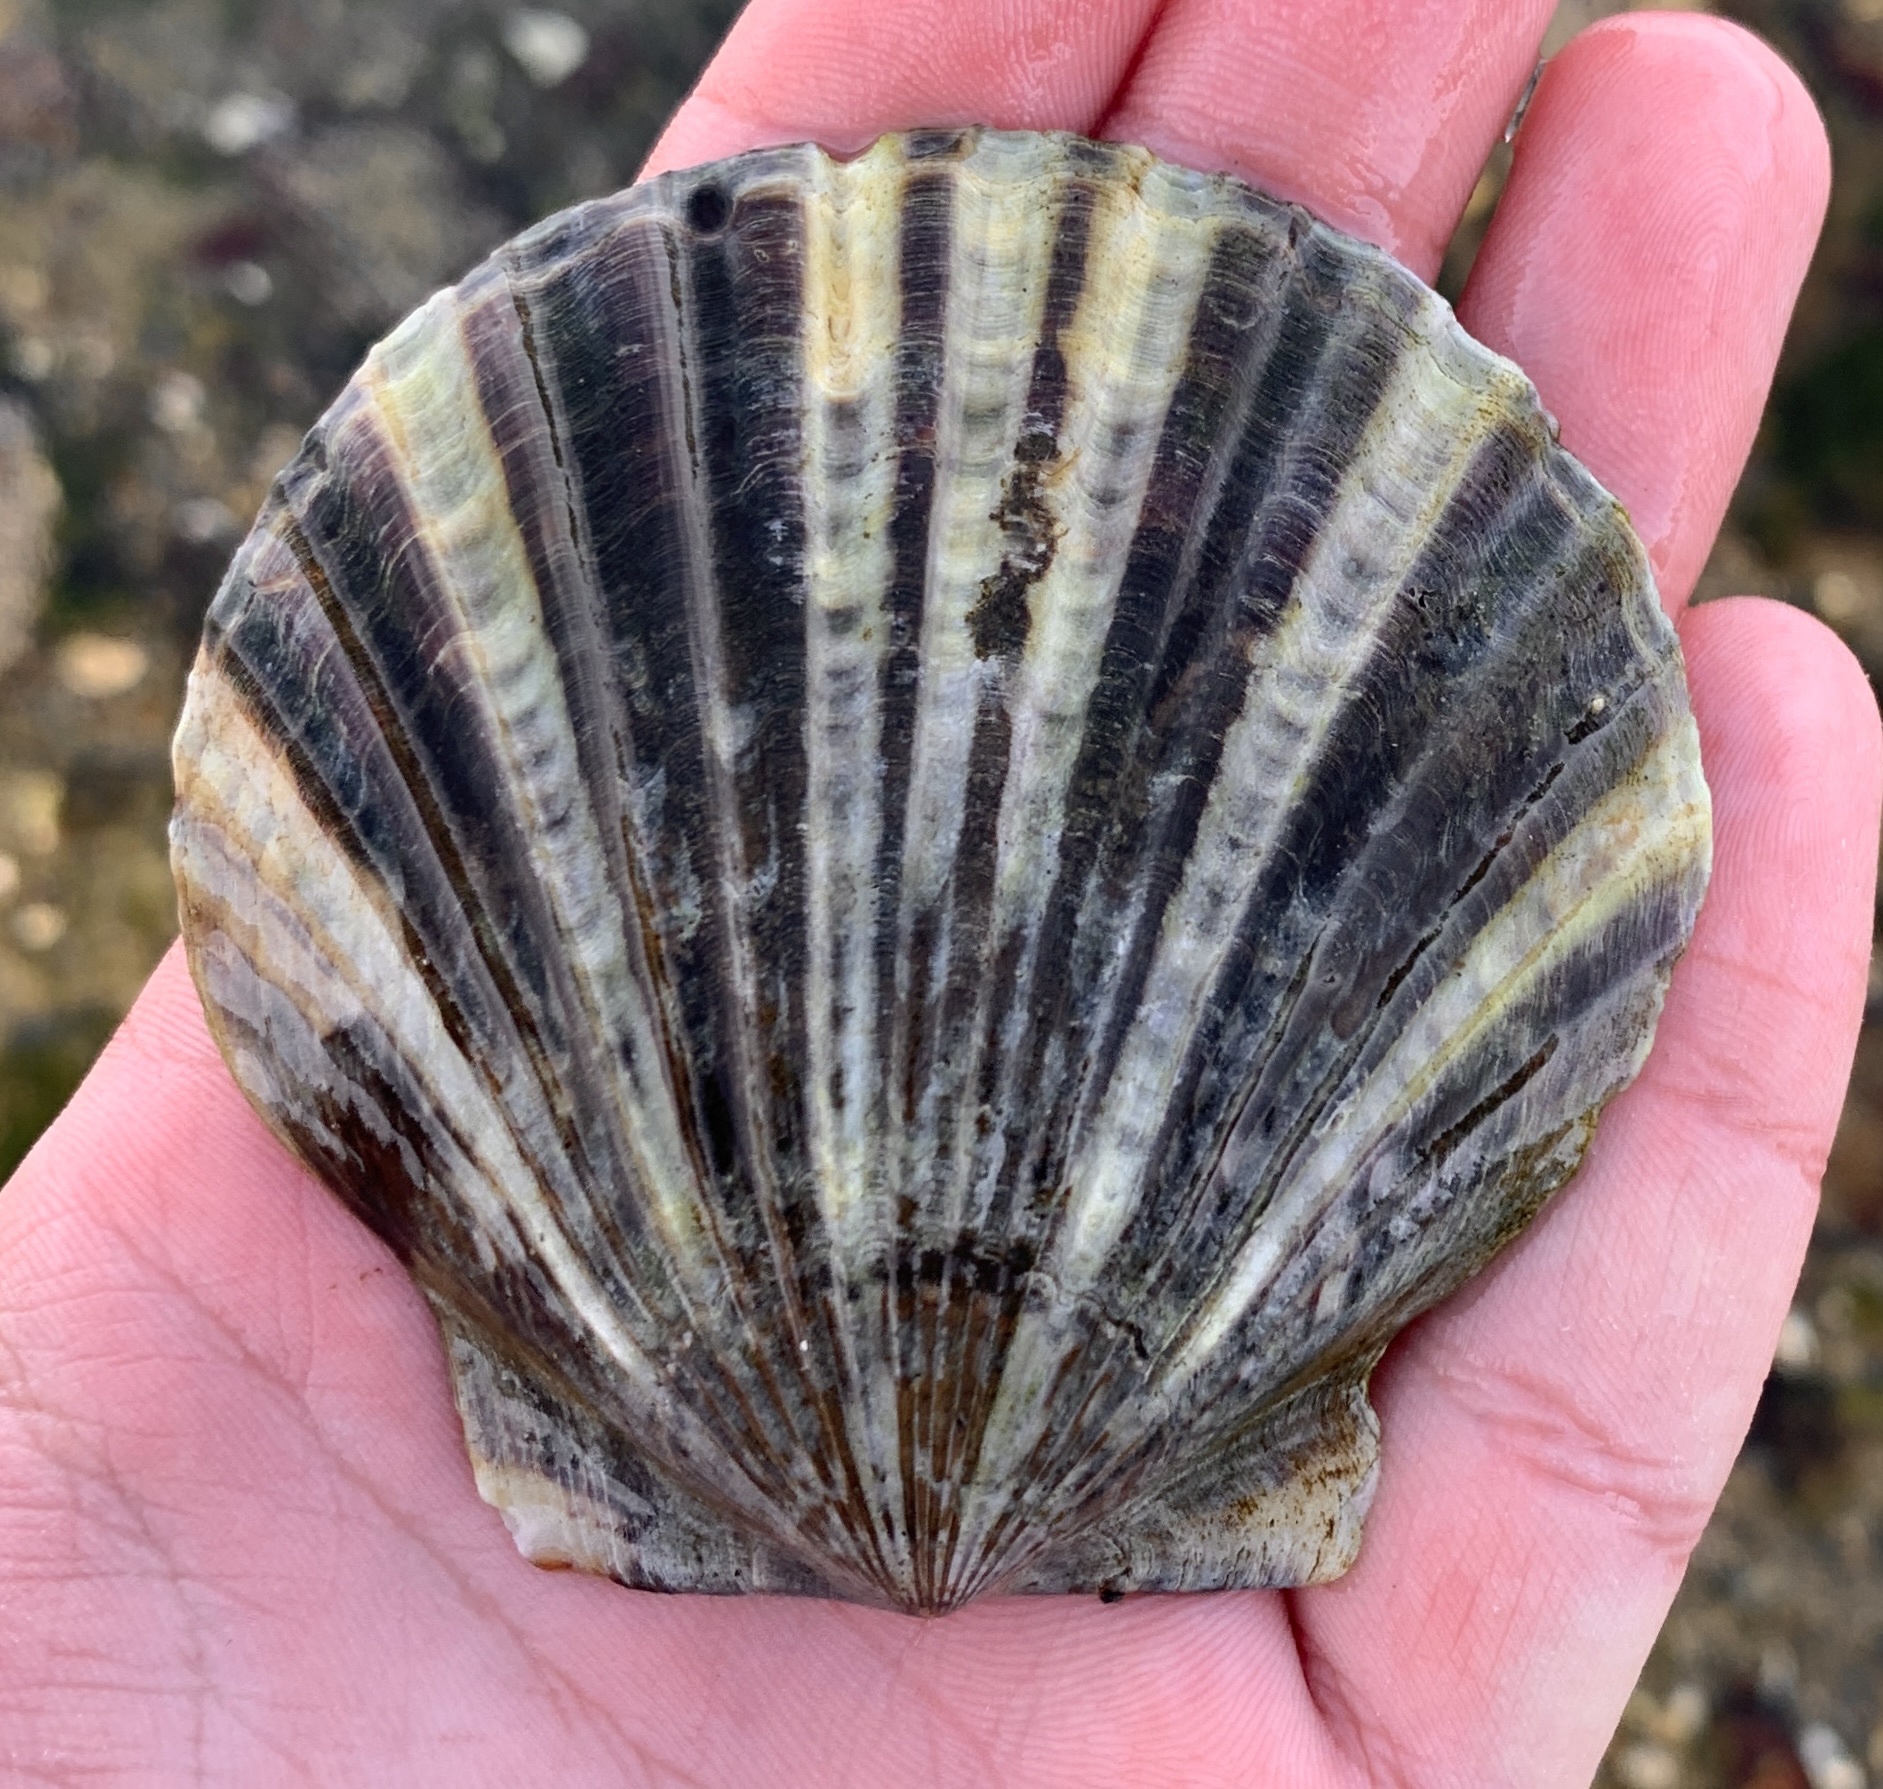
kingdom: Animalia
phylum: Mollusca
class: Bivalvia
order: Pectinida
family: Pectinidae
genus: Argopecten
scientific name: Argopecten irradians
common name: Atlantic bay scallop
